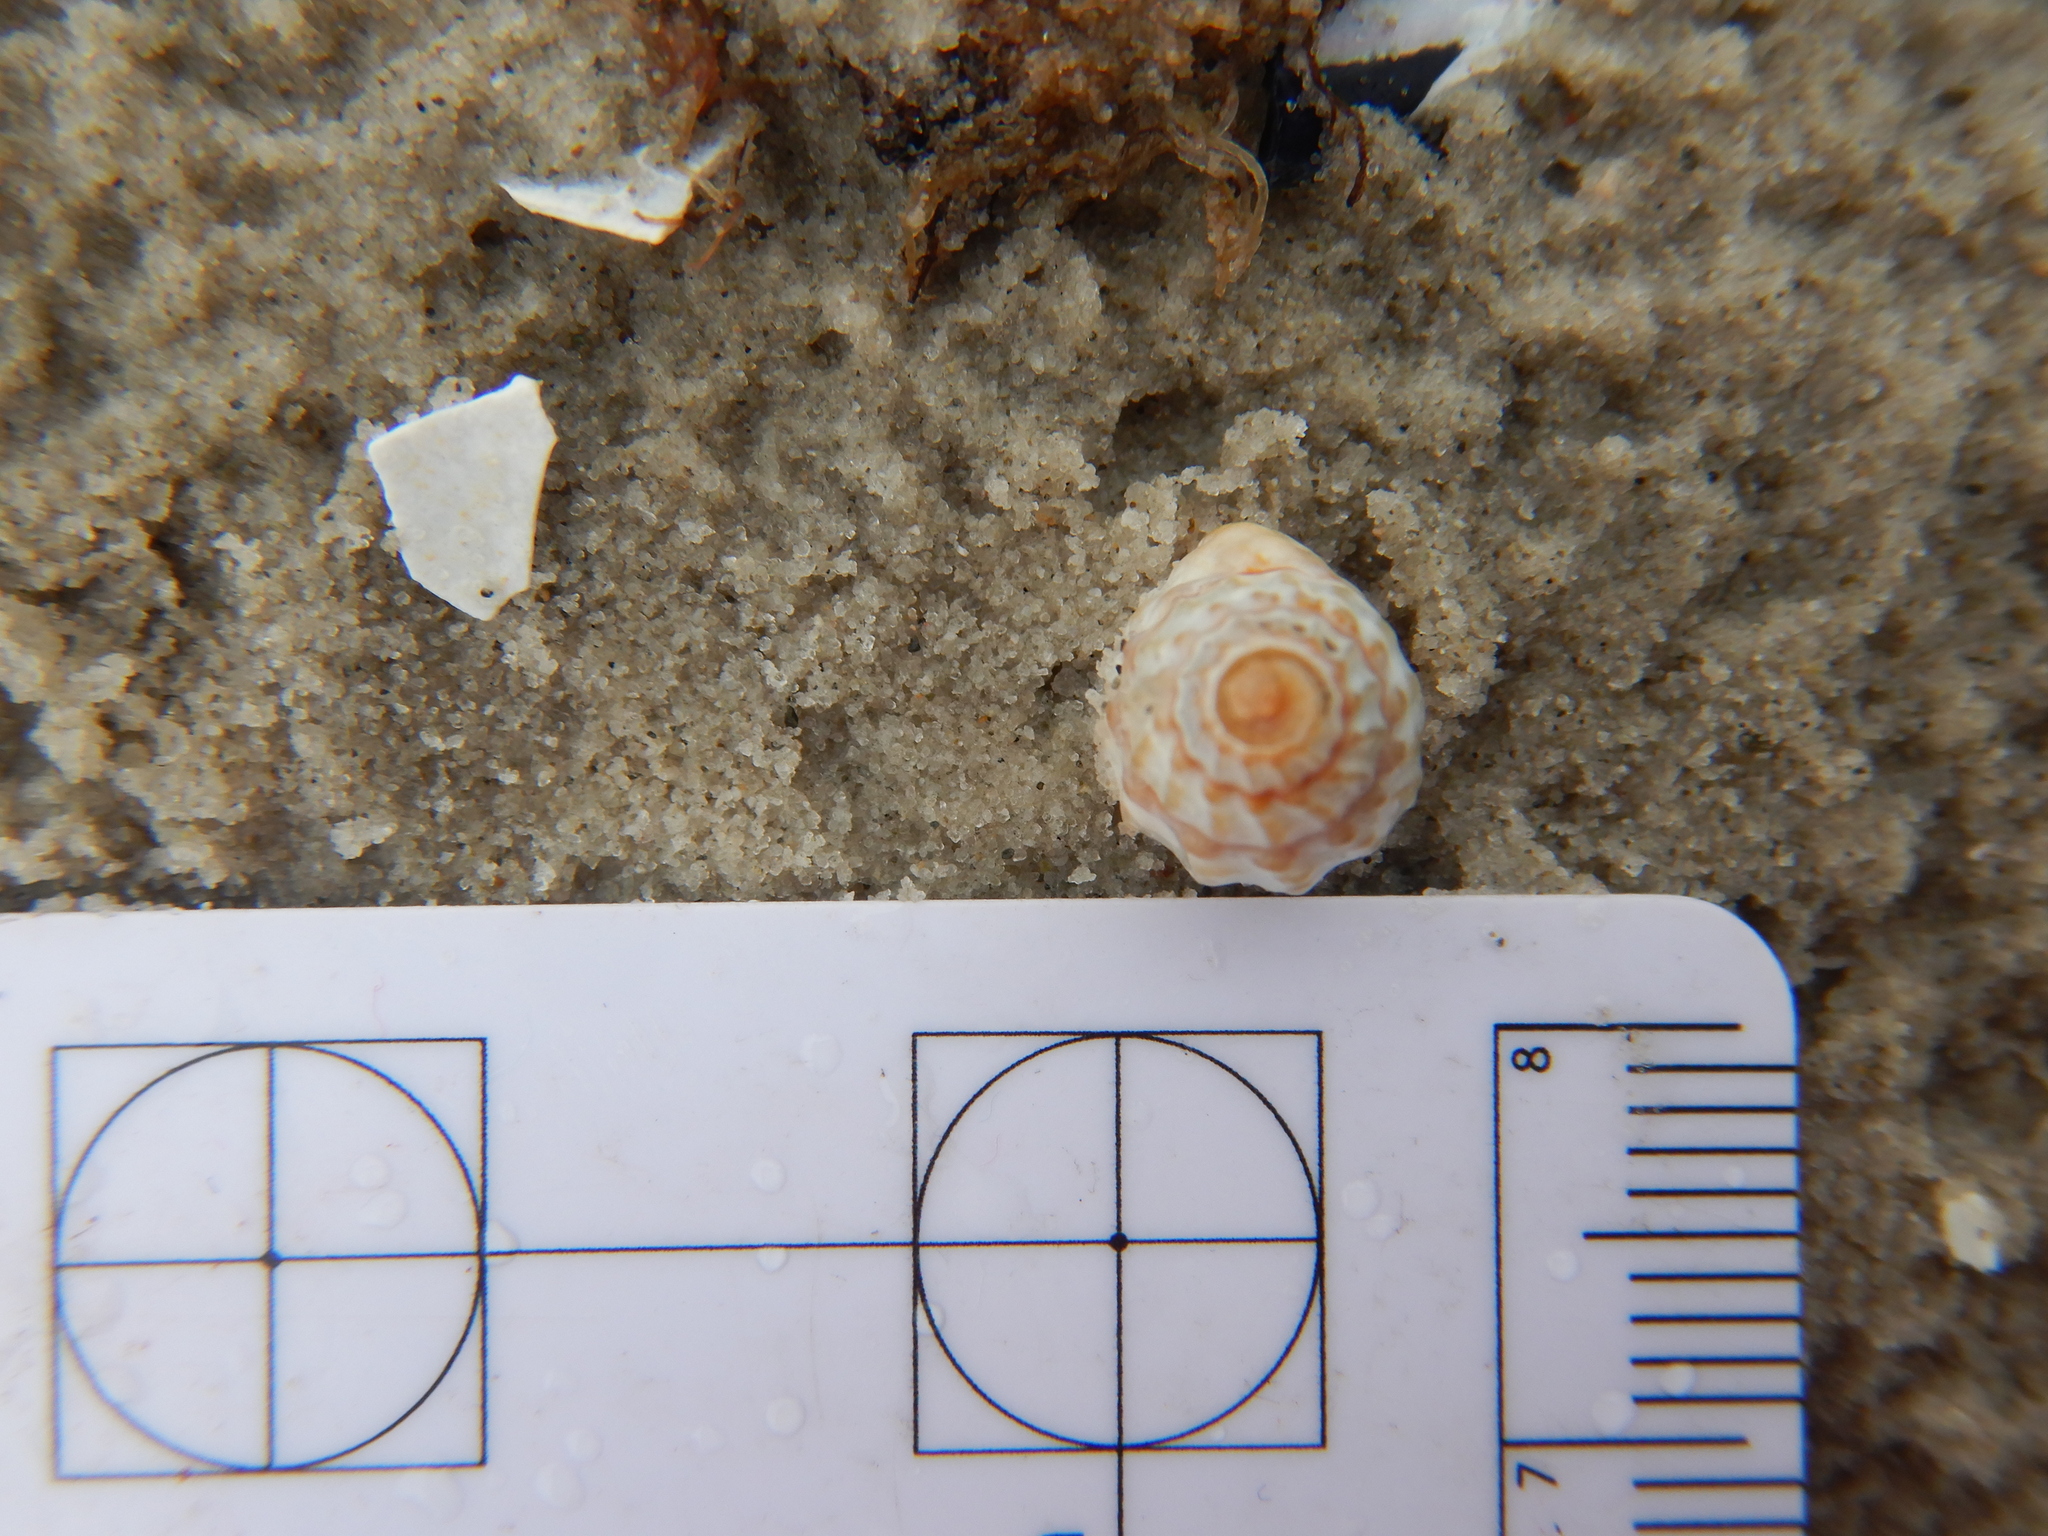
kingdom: Animalia
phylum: Mollusca
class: Gastropoda
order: Neogastropoda
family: Nassariidae
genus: Nassarius
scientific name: Nassarius pauperatus
